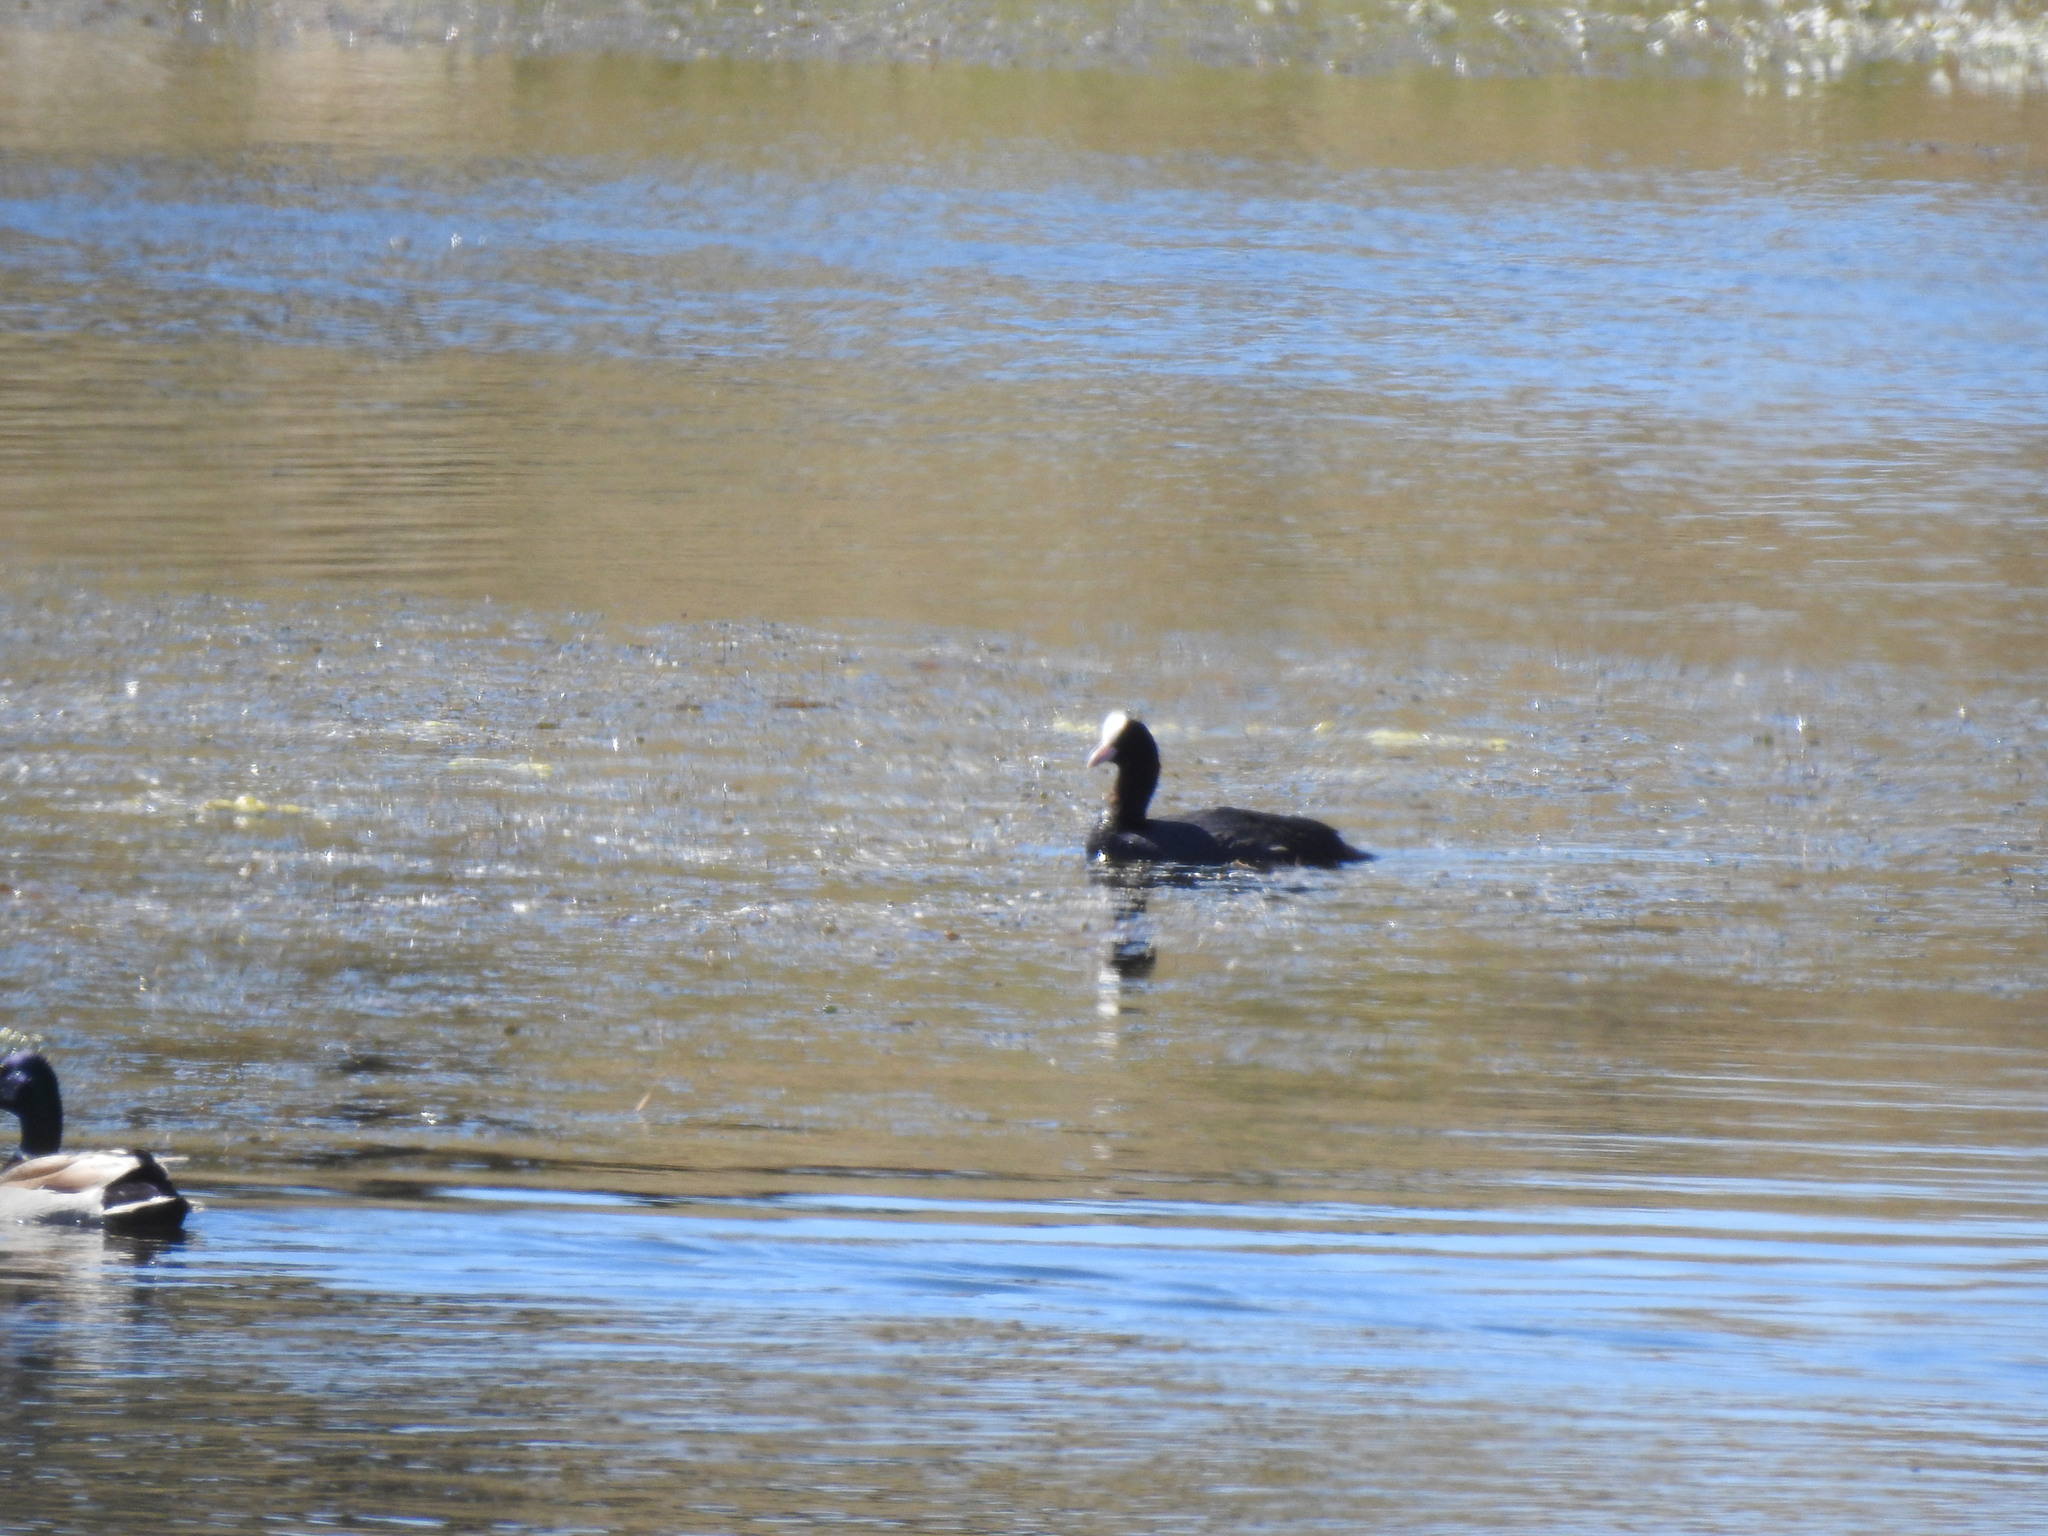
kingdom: Animalia
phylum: Chordata
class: Aves
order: Gruiformes
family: Rallidae
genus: Fulica
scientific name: Fulica atra
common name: Eurasian coot
